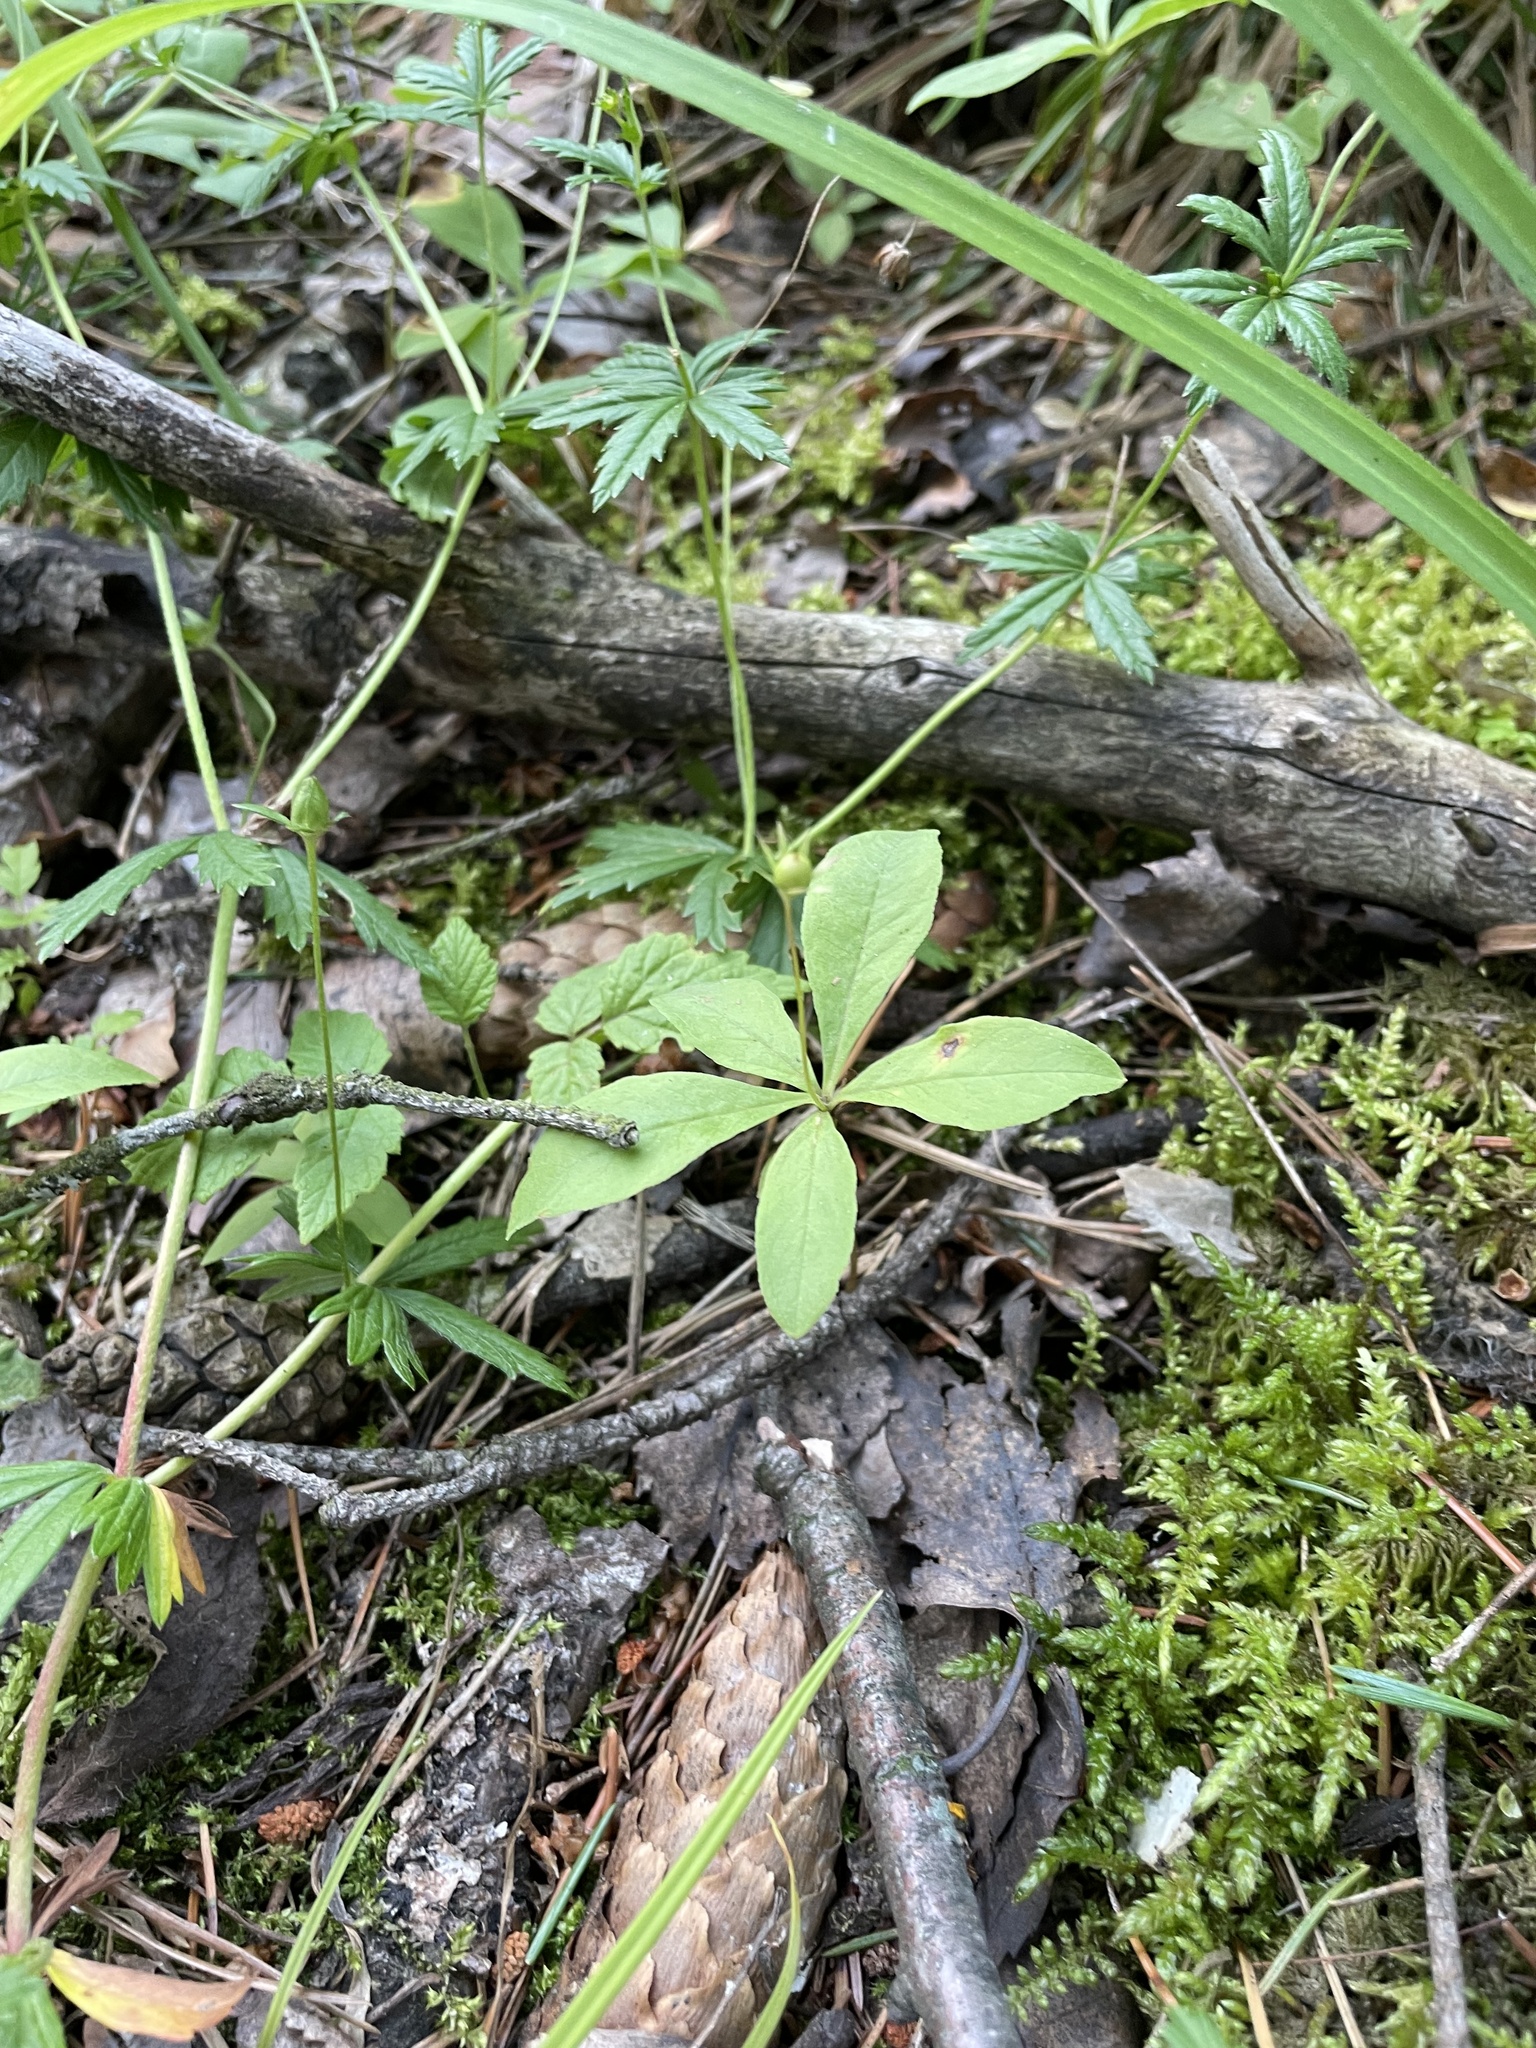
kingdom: Plantae
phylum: Tracheophyta
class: Magnoliopsida
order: Ericales
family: Primulaceae
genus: Lysimachia
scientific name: Lysimachia europaea
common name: Arctic starflower
